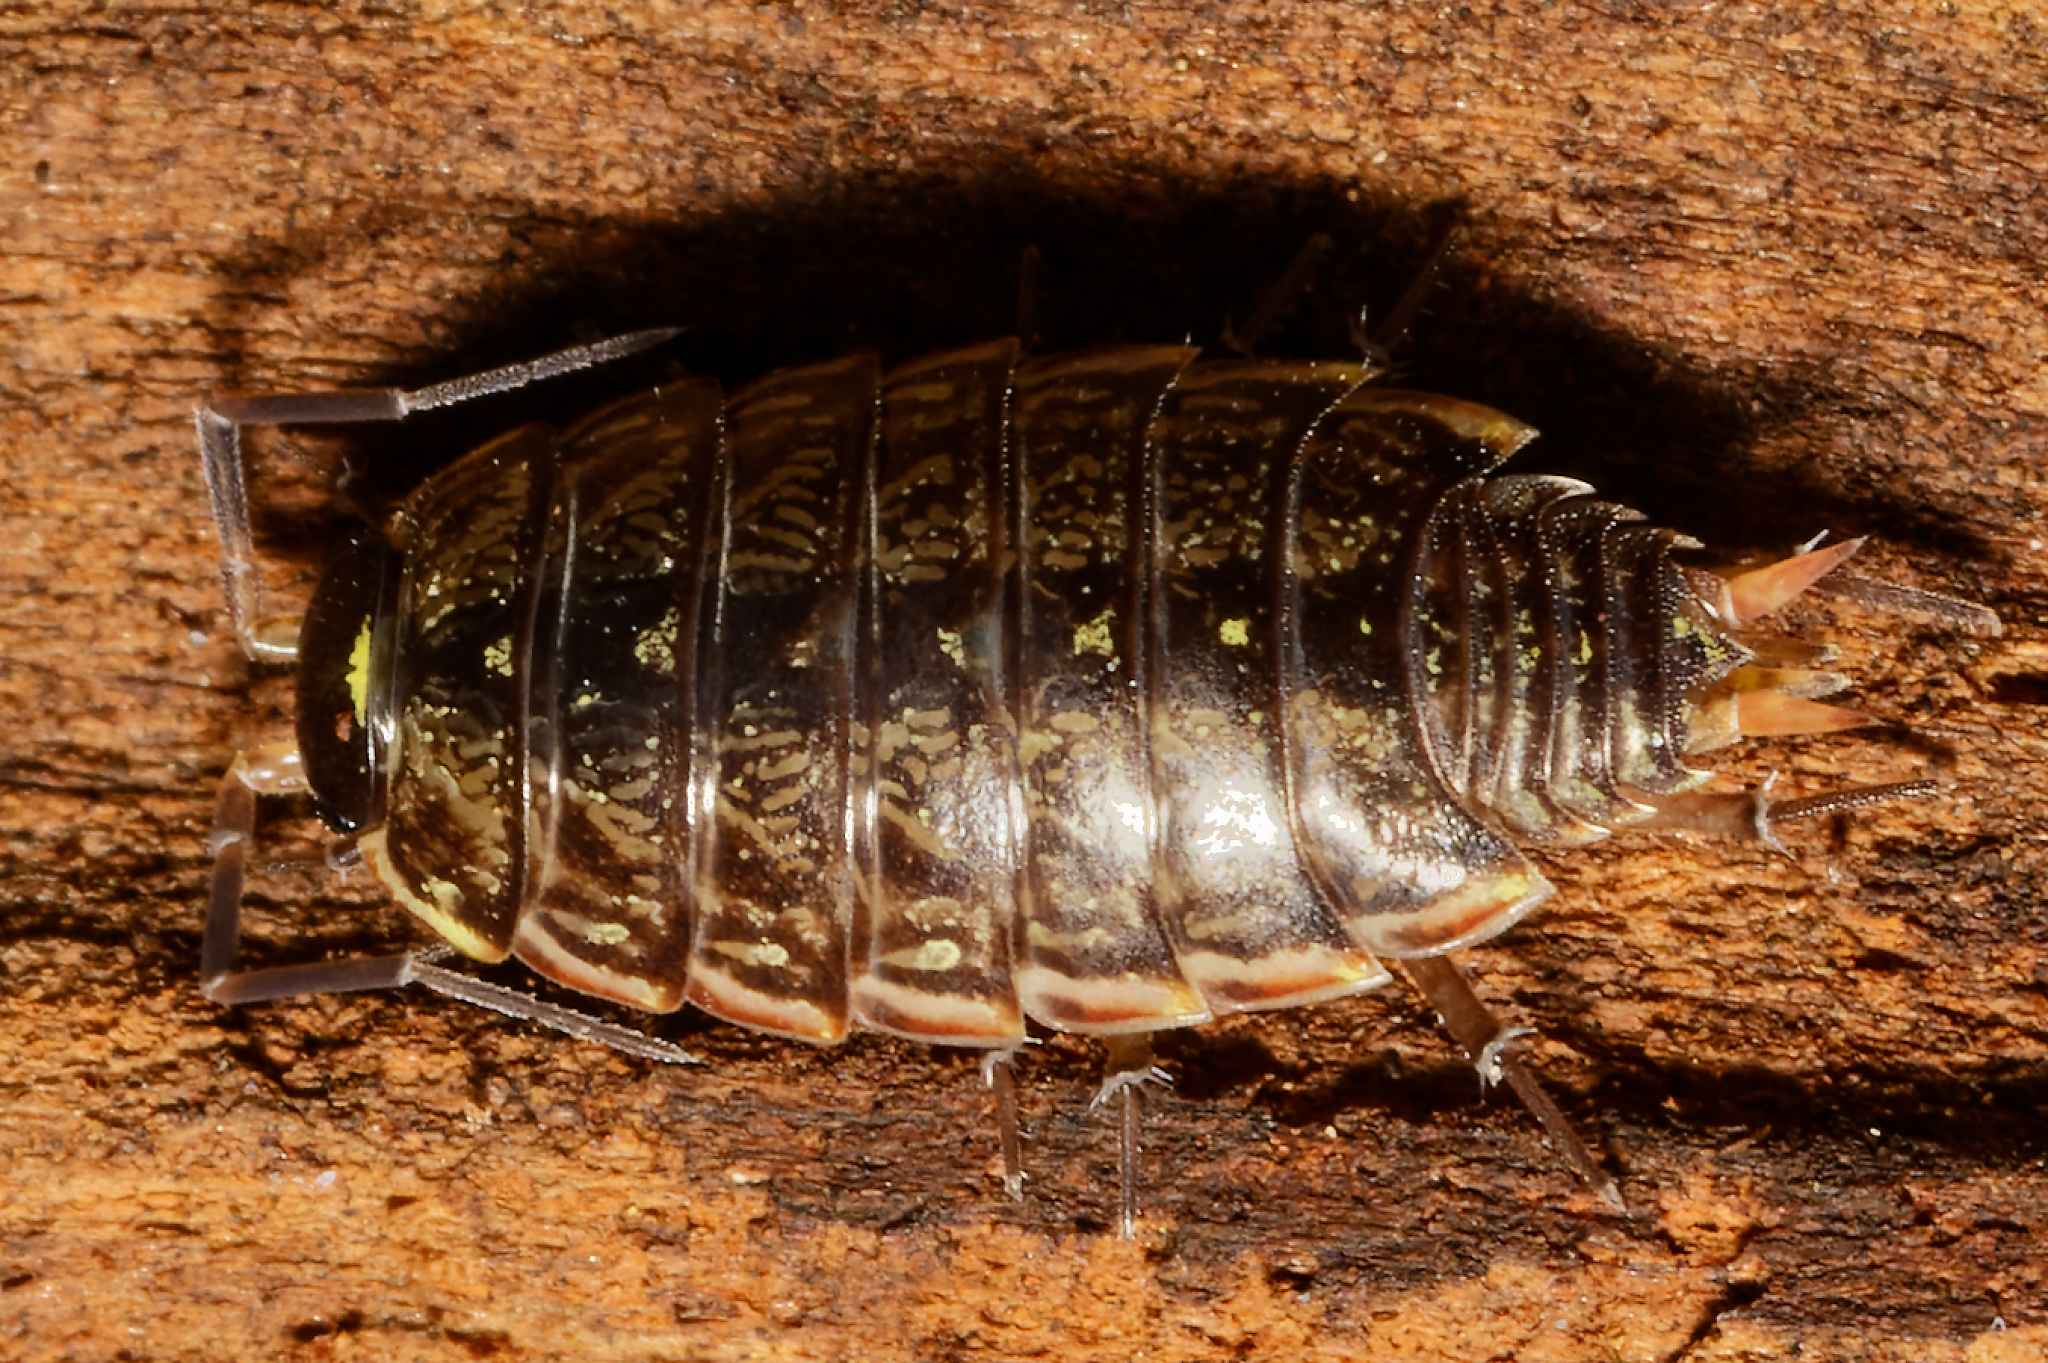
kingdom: Animalia
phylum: Arthropoda
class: Malacostraca
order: Isopoda
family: Philosciidae
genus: Philoscia
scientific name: Philoscia muscorum
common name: Common striped woodlouse
